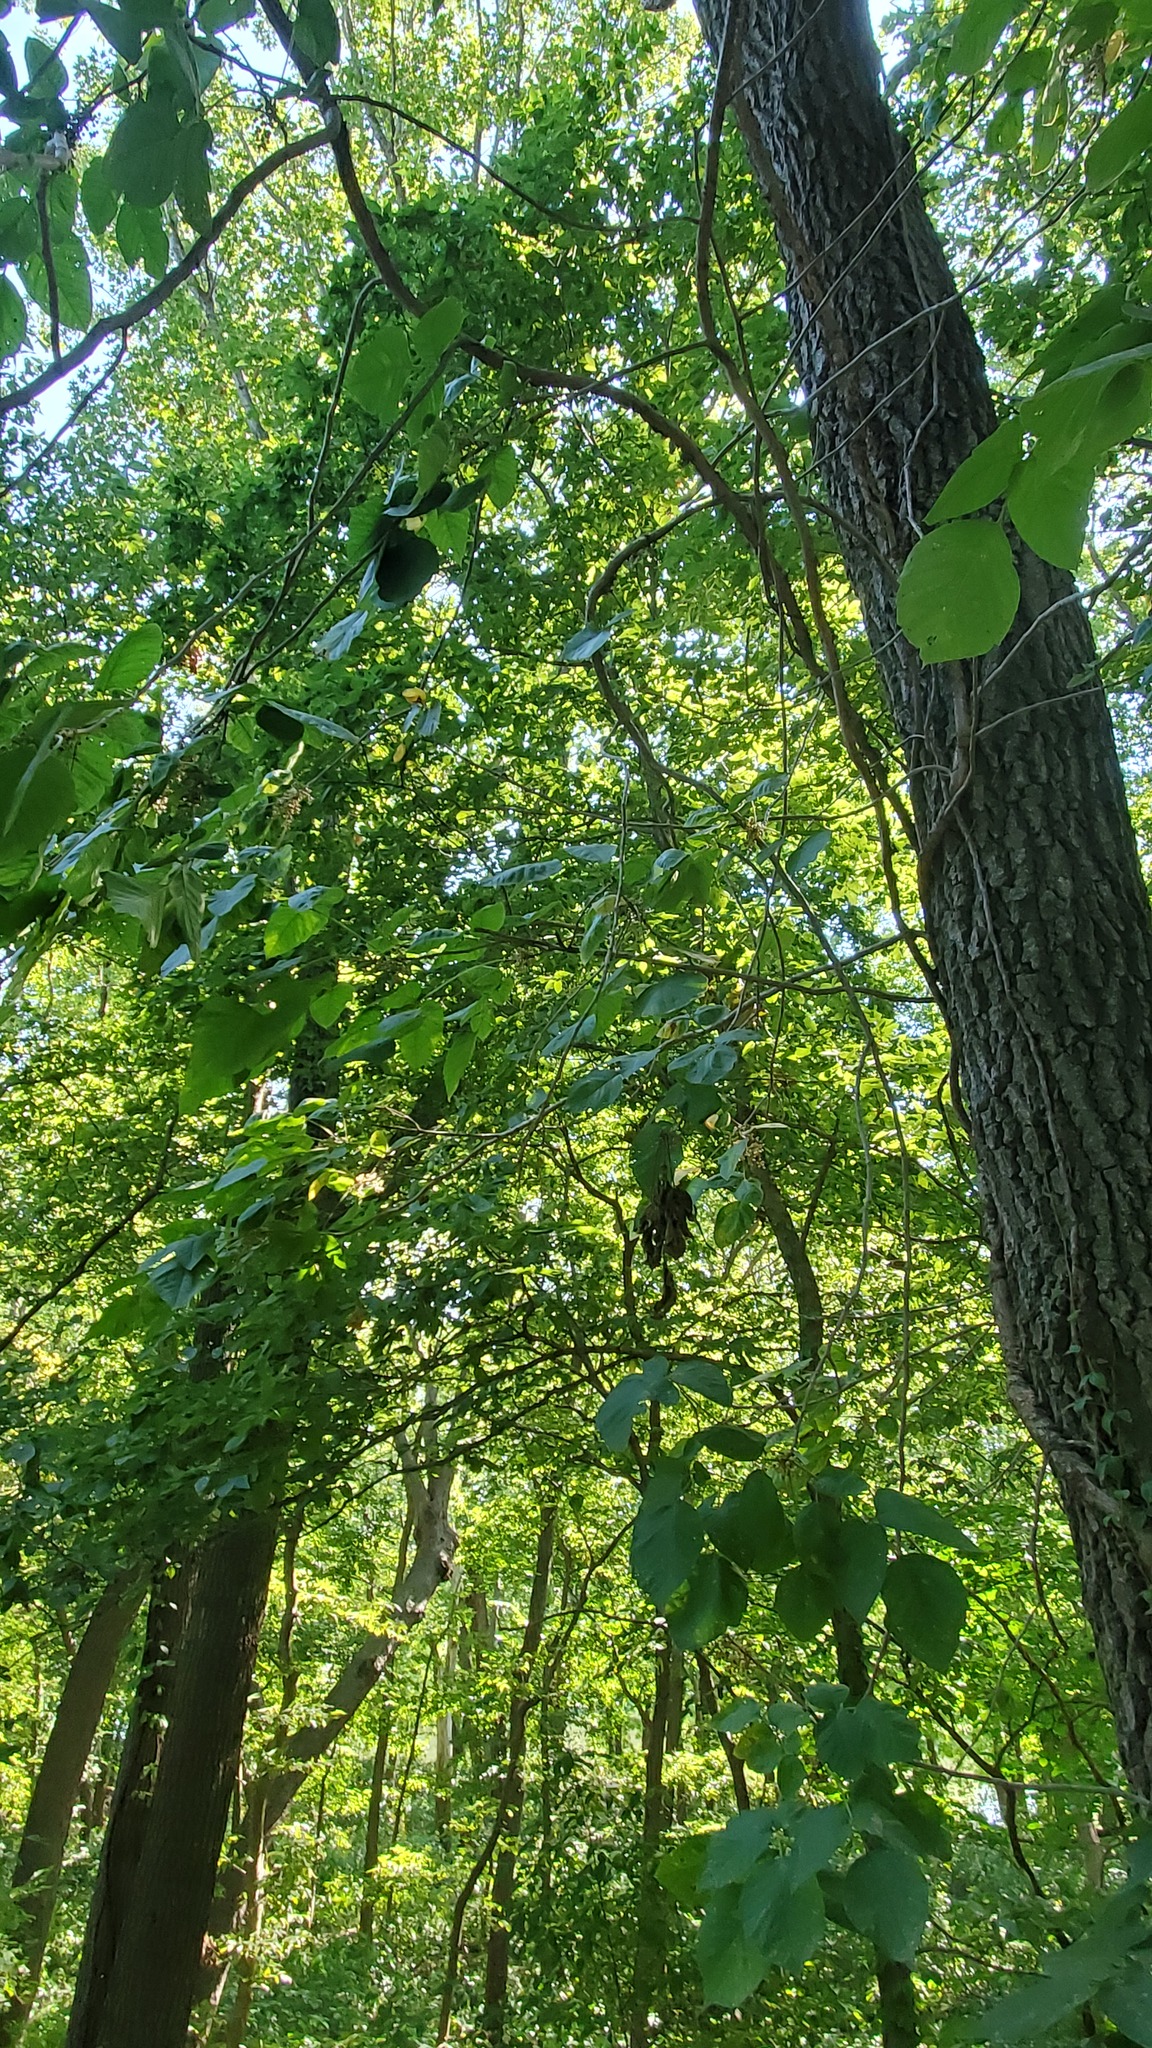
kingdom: Plantae
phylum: Tracheophyta
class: Magnoliopsida
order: Sapindales
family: Anacardiaceae
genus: Toxicodendron
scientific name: Toxicodendron radicans
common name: Poison ivy
